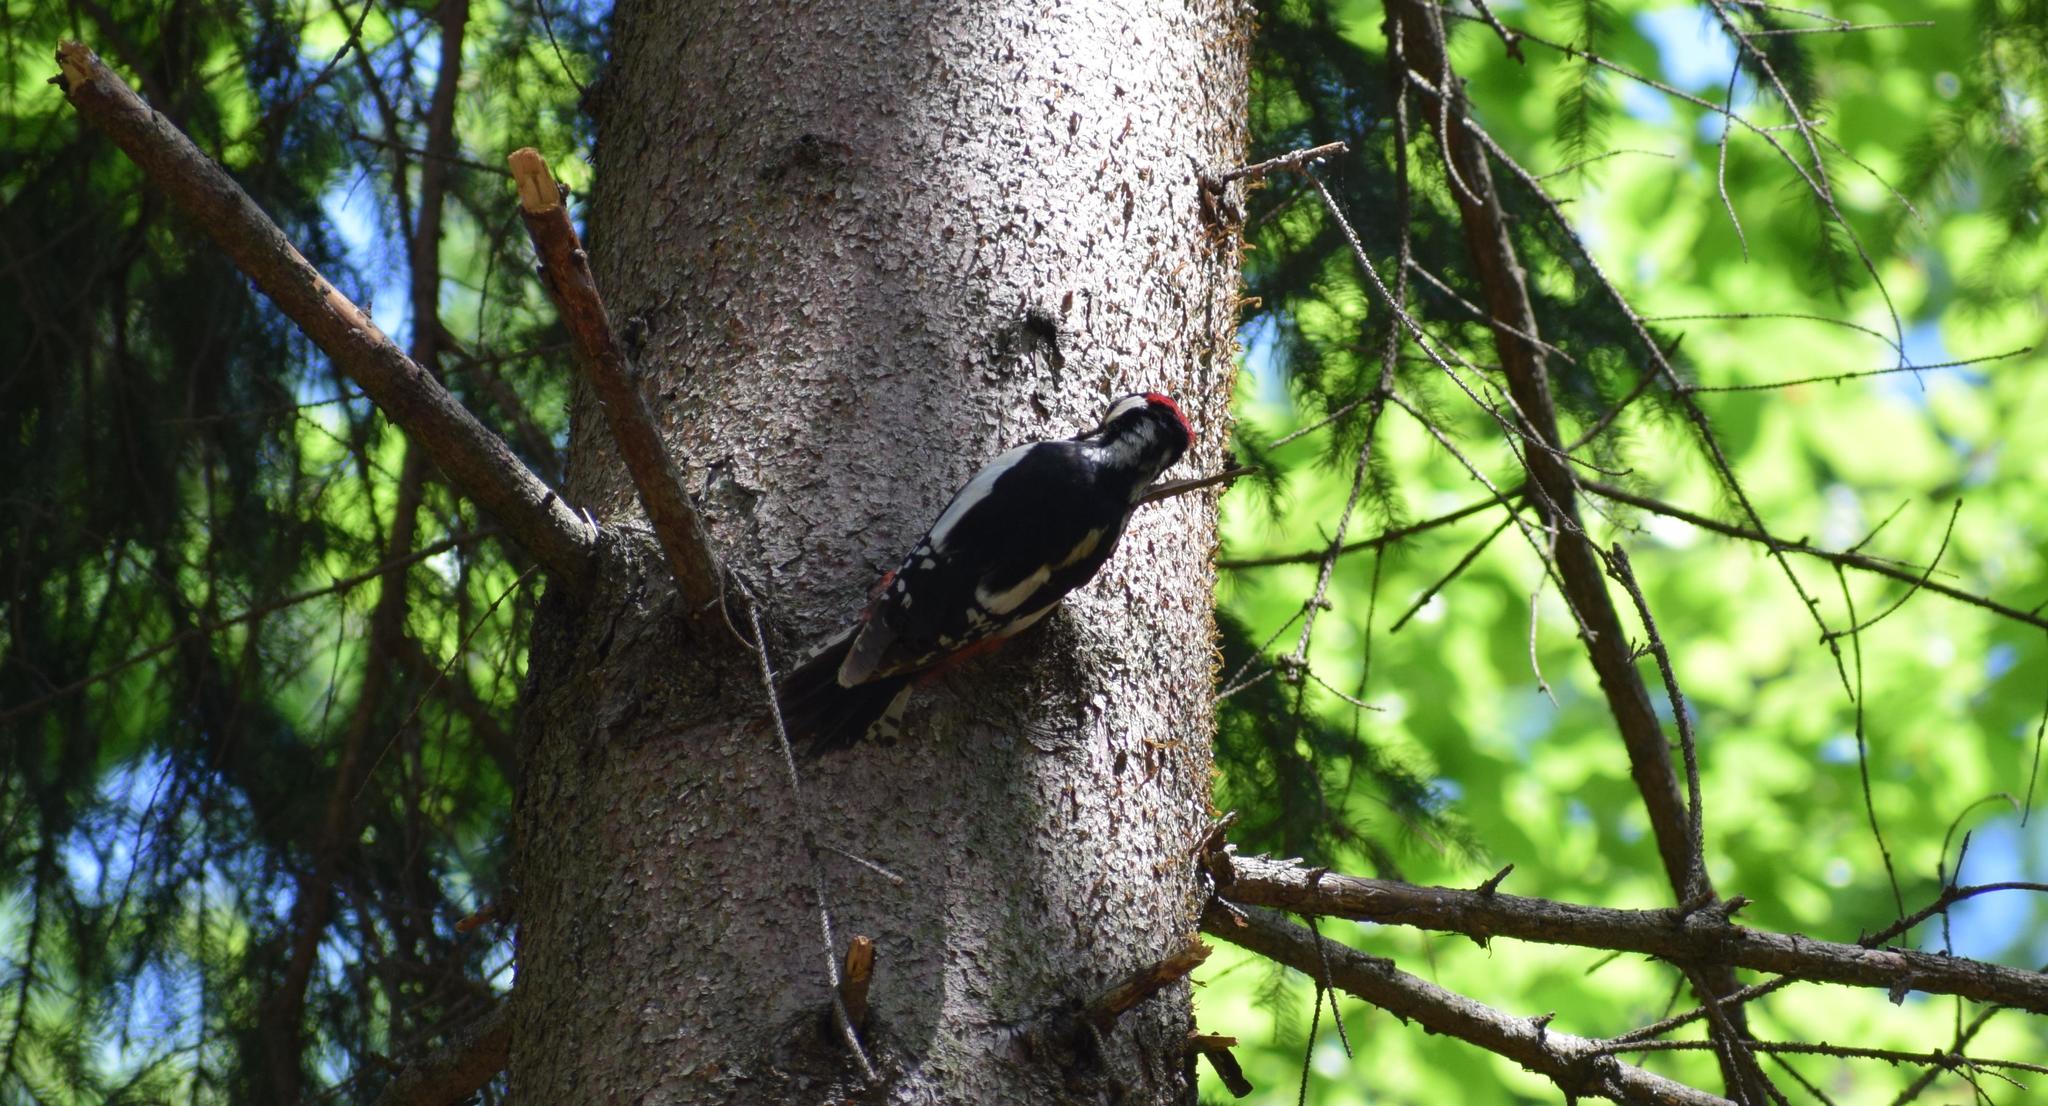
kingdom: Animalia
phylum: Chordata
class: Aves
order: Piciformes
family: Picidae
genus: Dendrocopos
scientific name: Dendrocopos major
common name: Great spotted woodpecker
